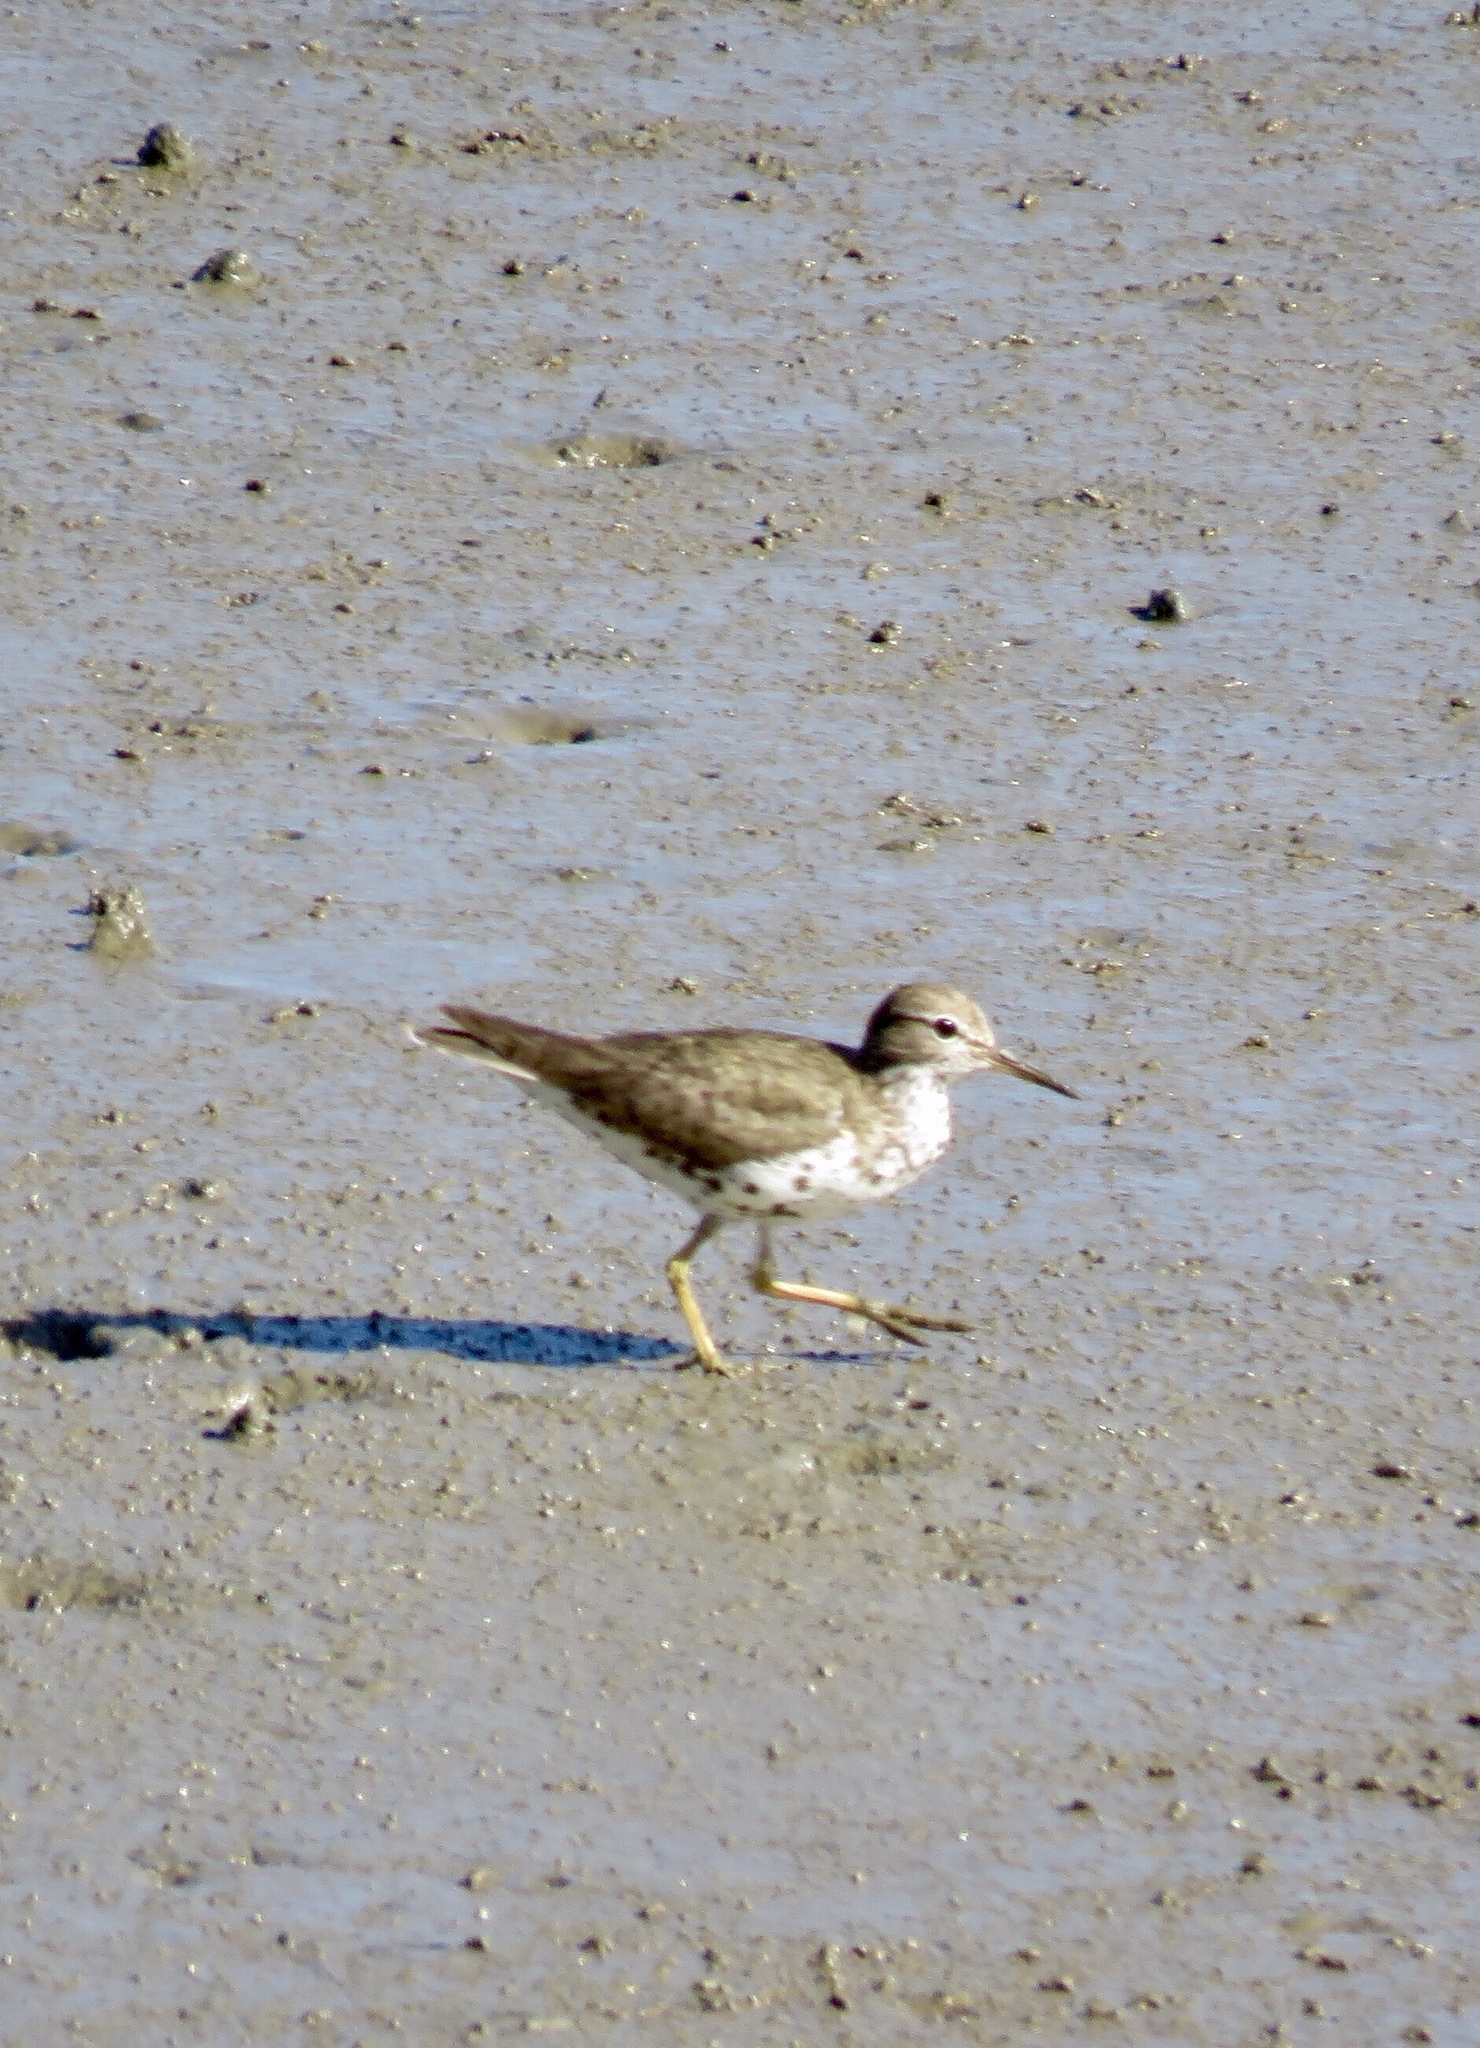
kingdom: Animalia
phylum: Chordata
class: Aves
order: Charadriiformes
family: Scolopacidae
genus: Actitis
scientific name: Actitis macularius
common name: Spotted sandpiper
